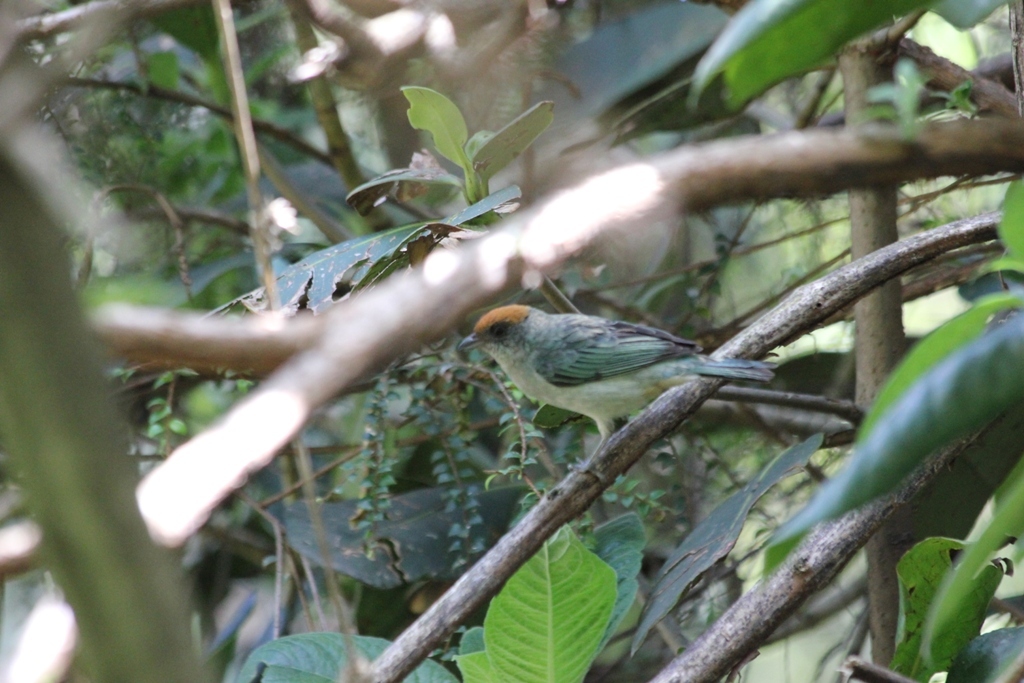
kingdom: Animalia
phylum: Chordata
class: Aves
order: Passeriformes
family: Thraupidae
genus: Stilpnia
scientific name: Stilpnia vitriolina
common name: Scrub tanager
